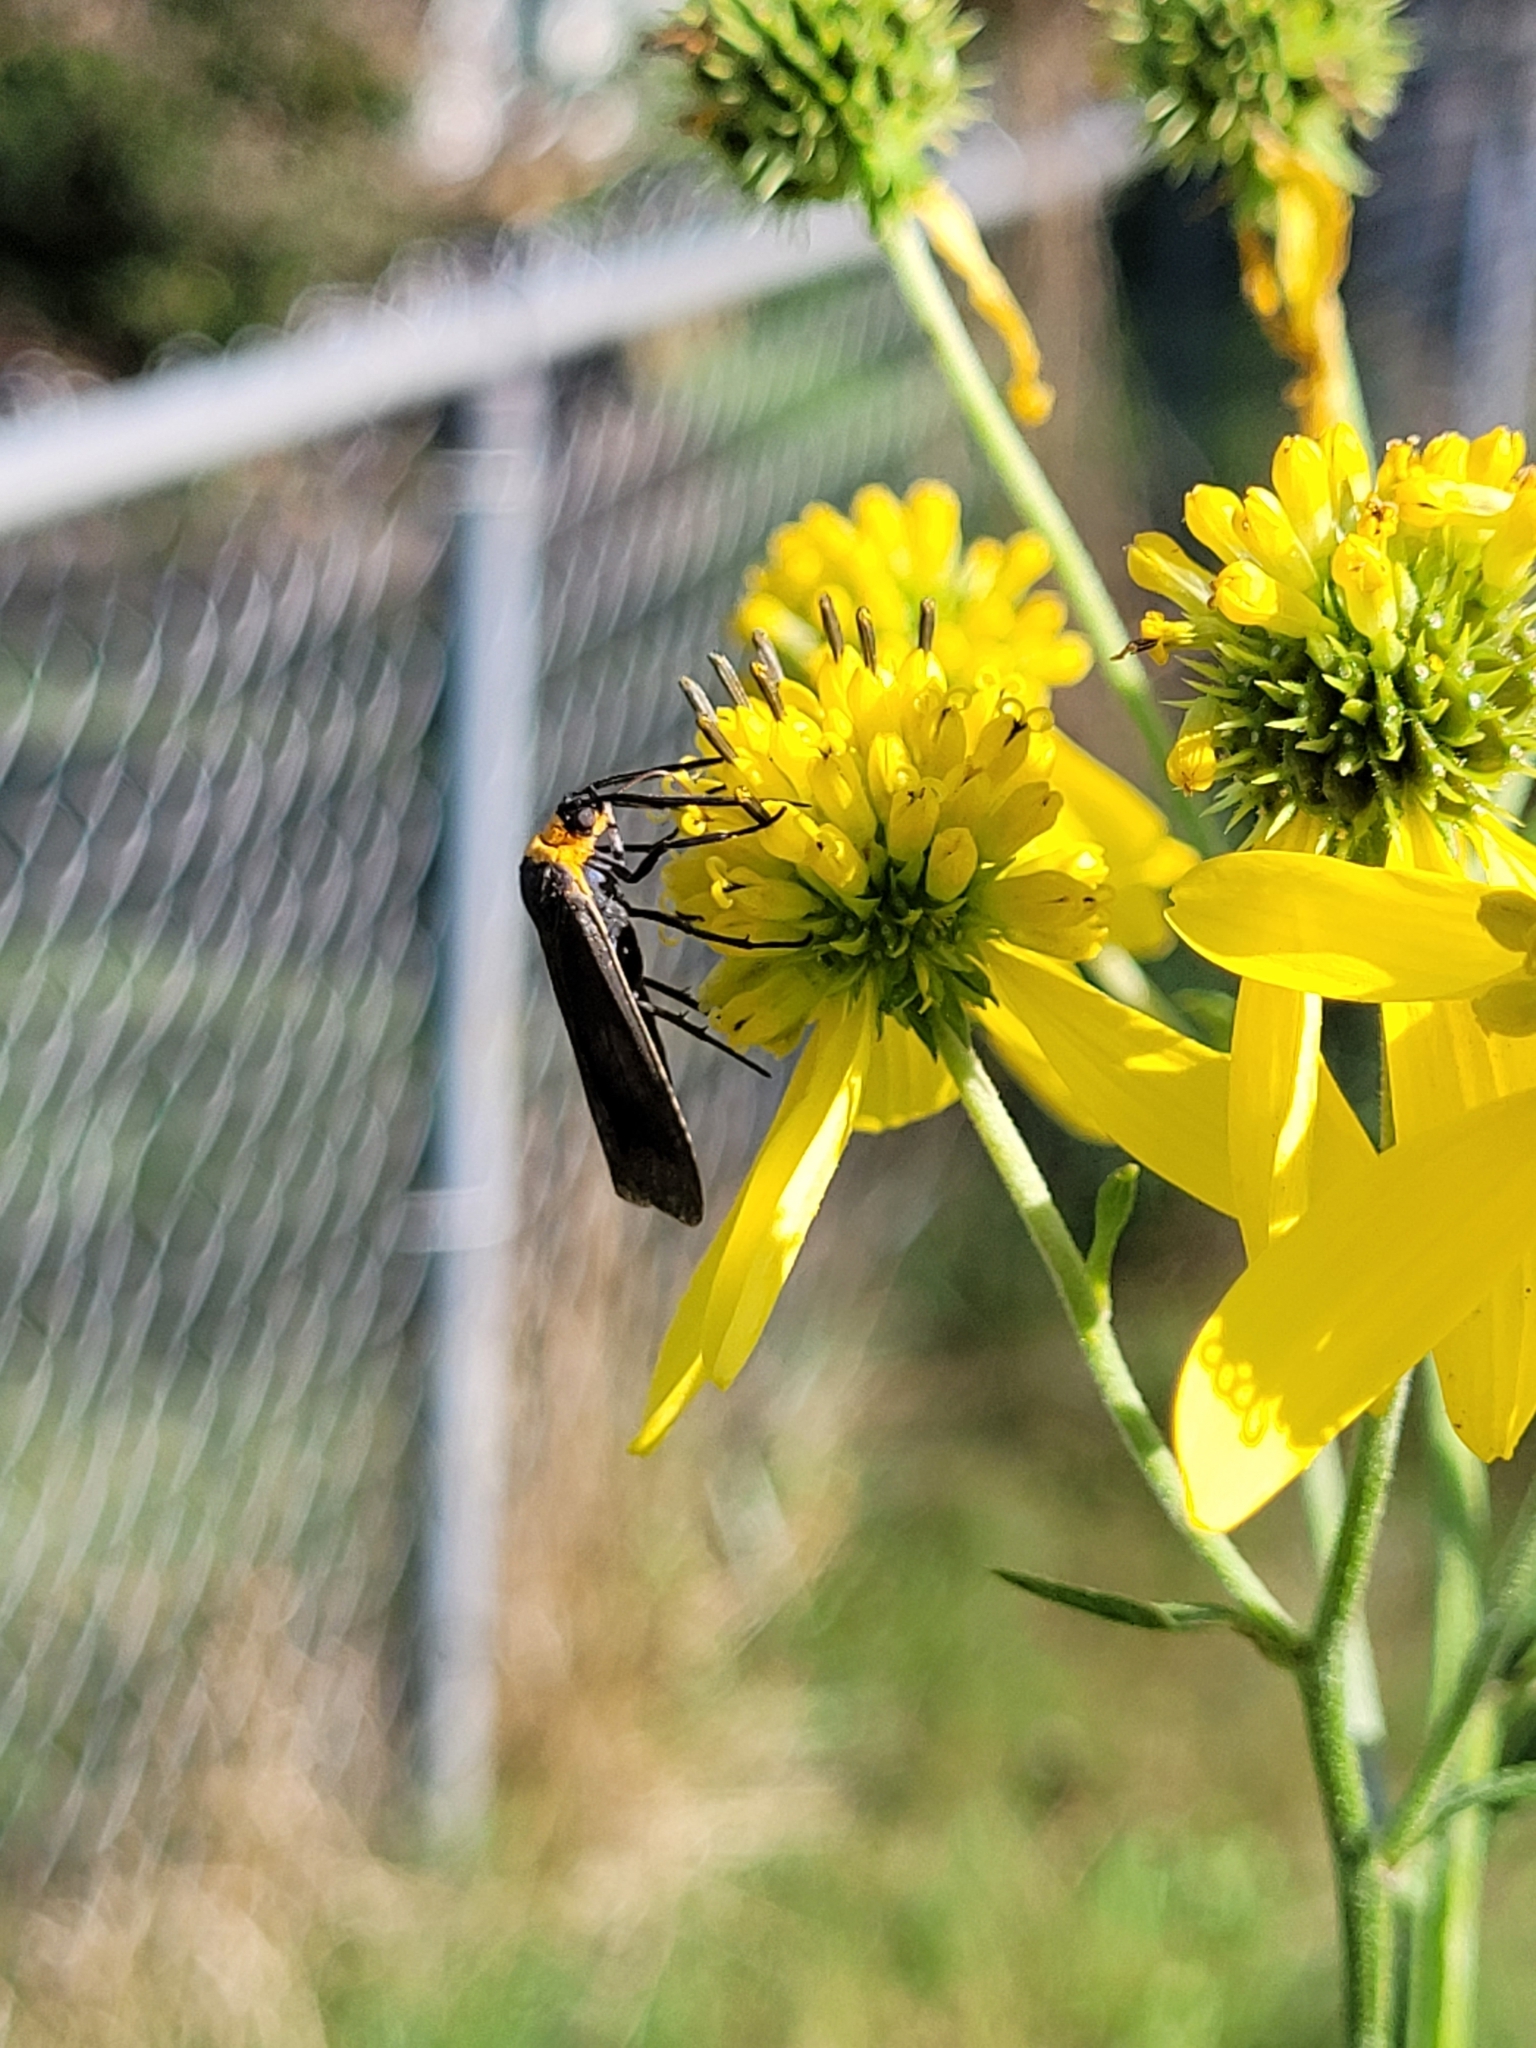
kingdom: Animalia
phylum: Arthropoda
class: Insecta
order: Lepidoptera
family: Erebidae
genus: Cisseps
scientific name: Cisseps fulvicollis
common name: Yellow-collared scape moth
